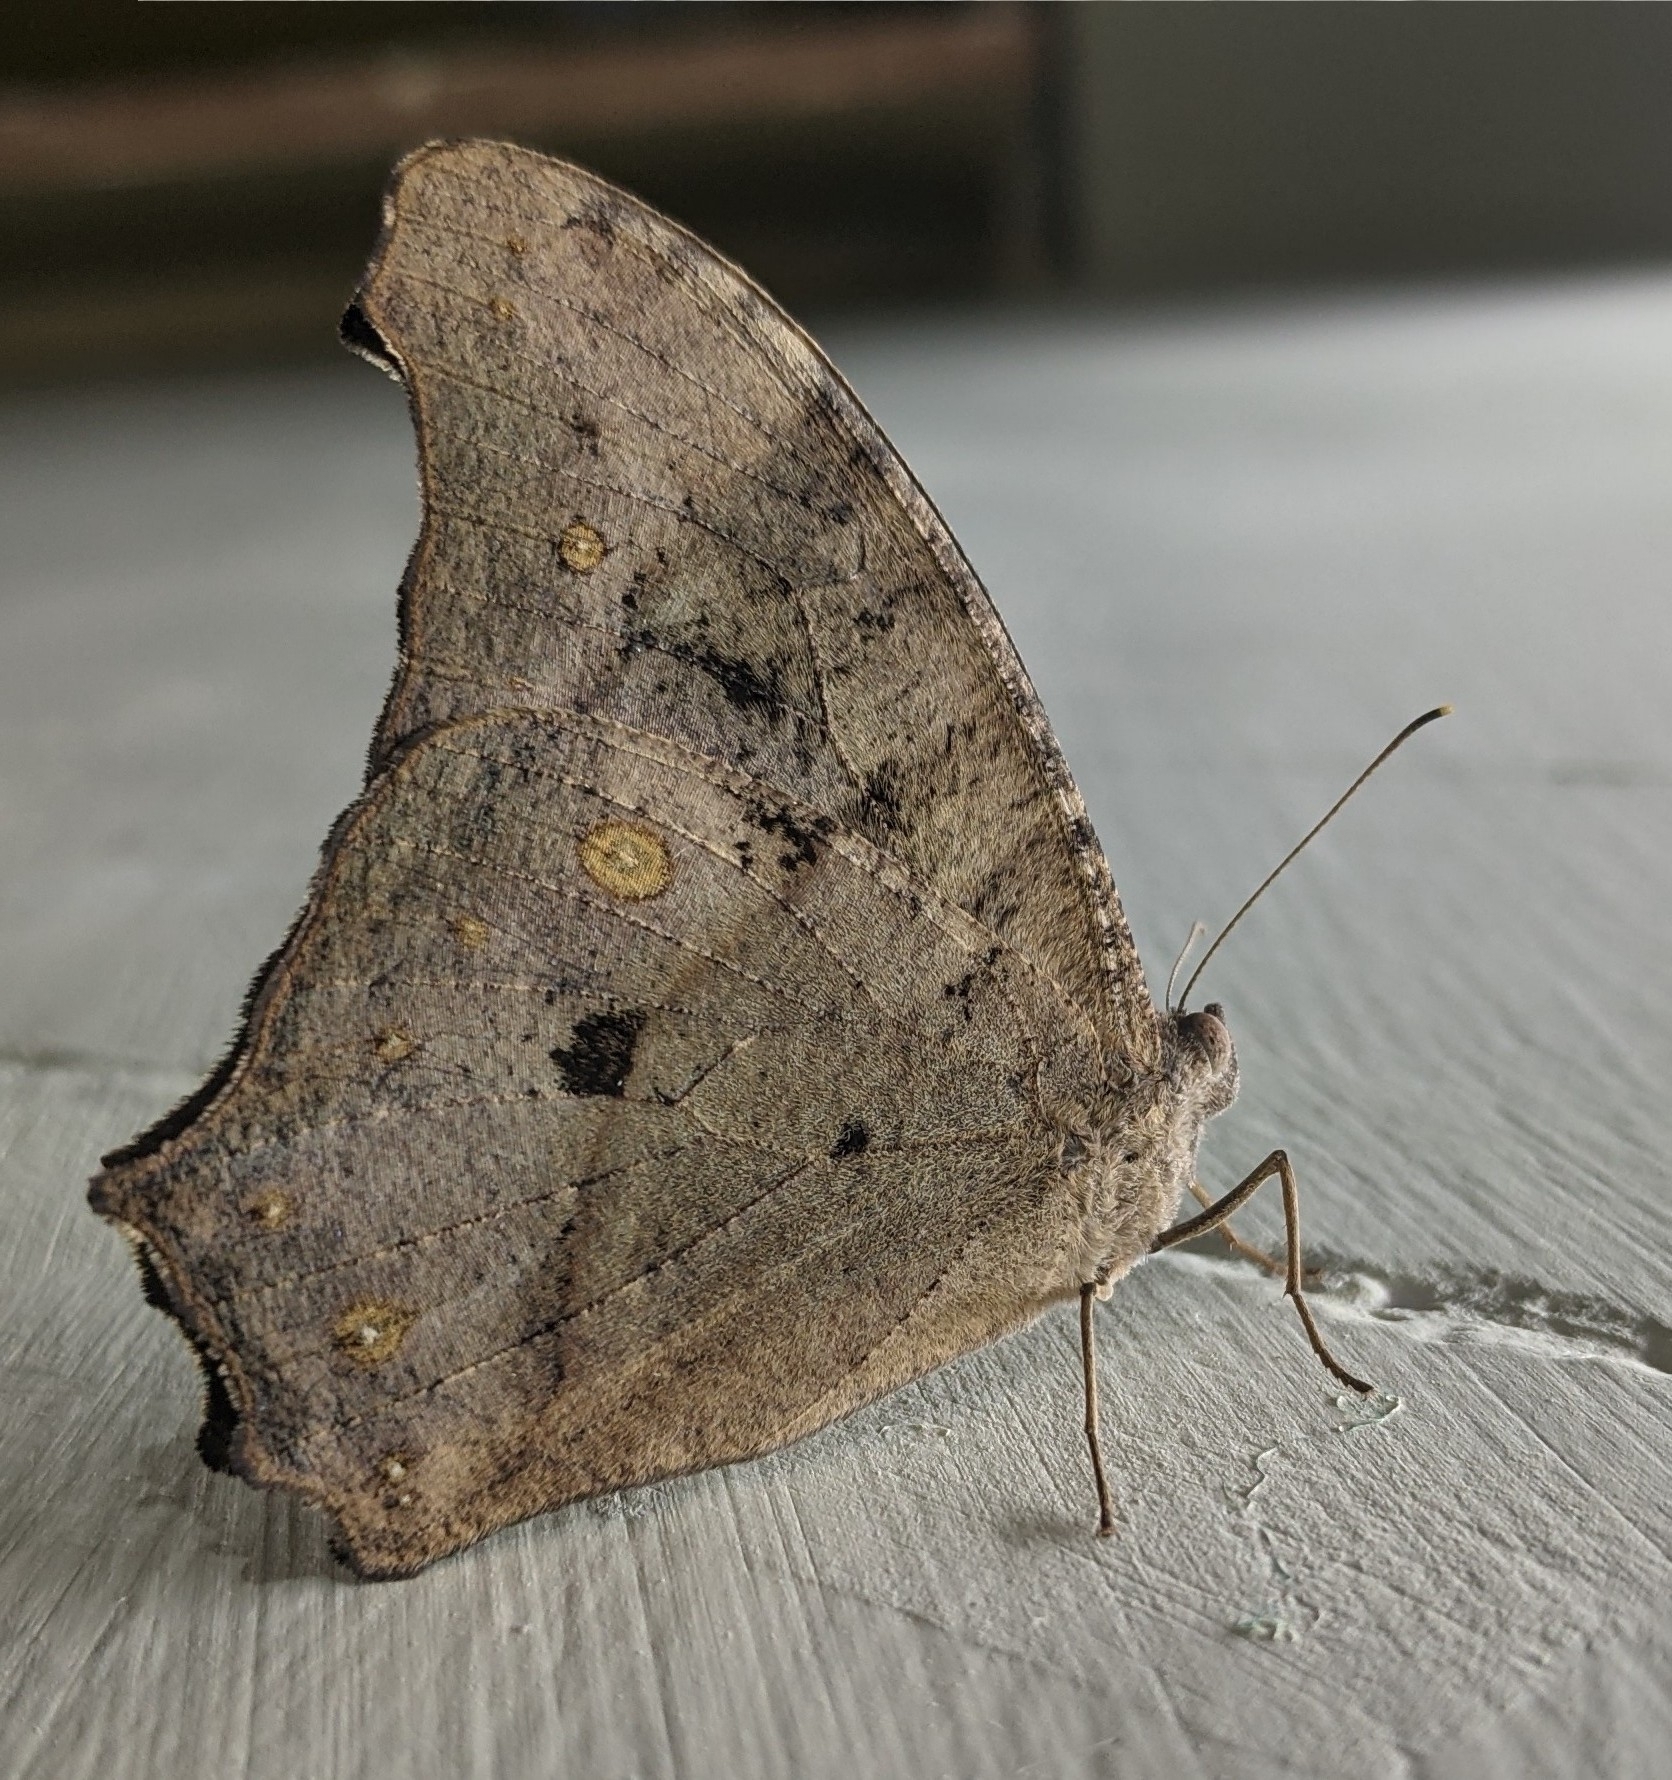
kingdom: Animalia
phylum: Arthropoda
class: Insecta
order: Lepidoptera
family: Nymphalidae
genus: Melanitis
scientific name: Melanitis leda
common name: Twilight brown
